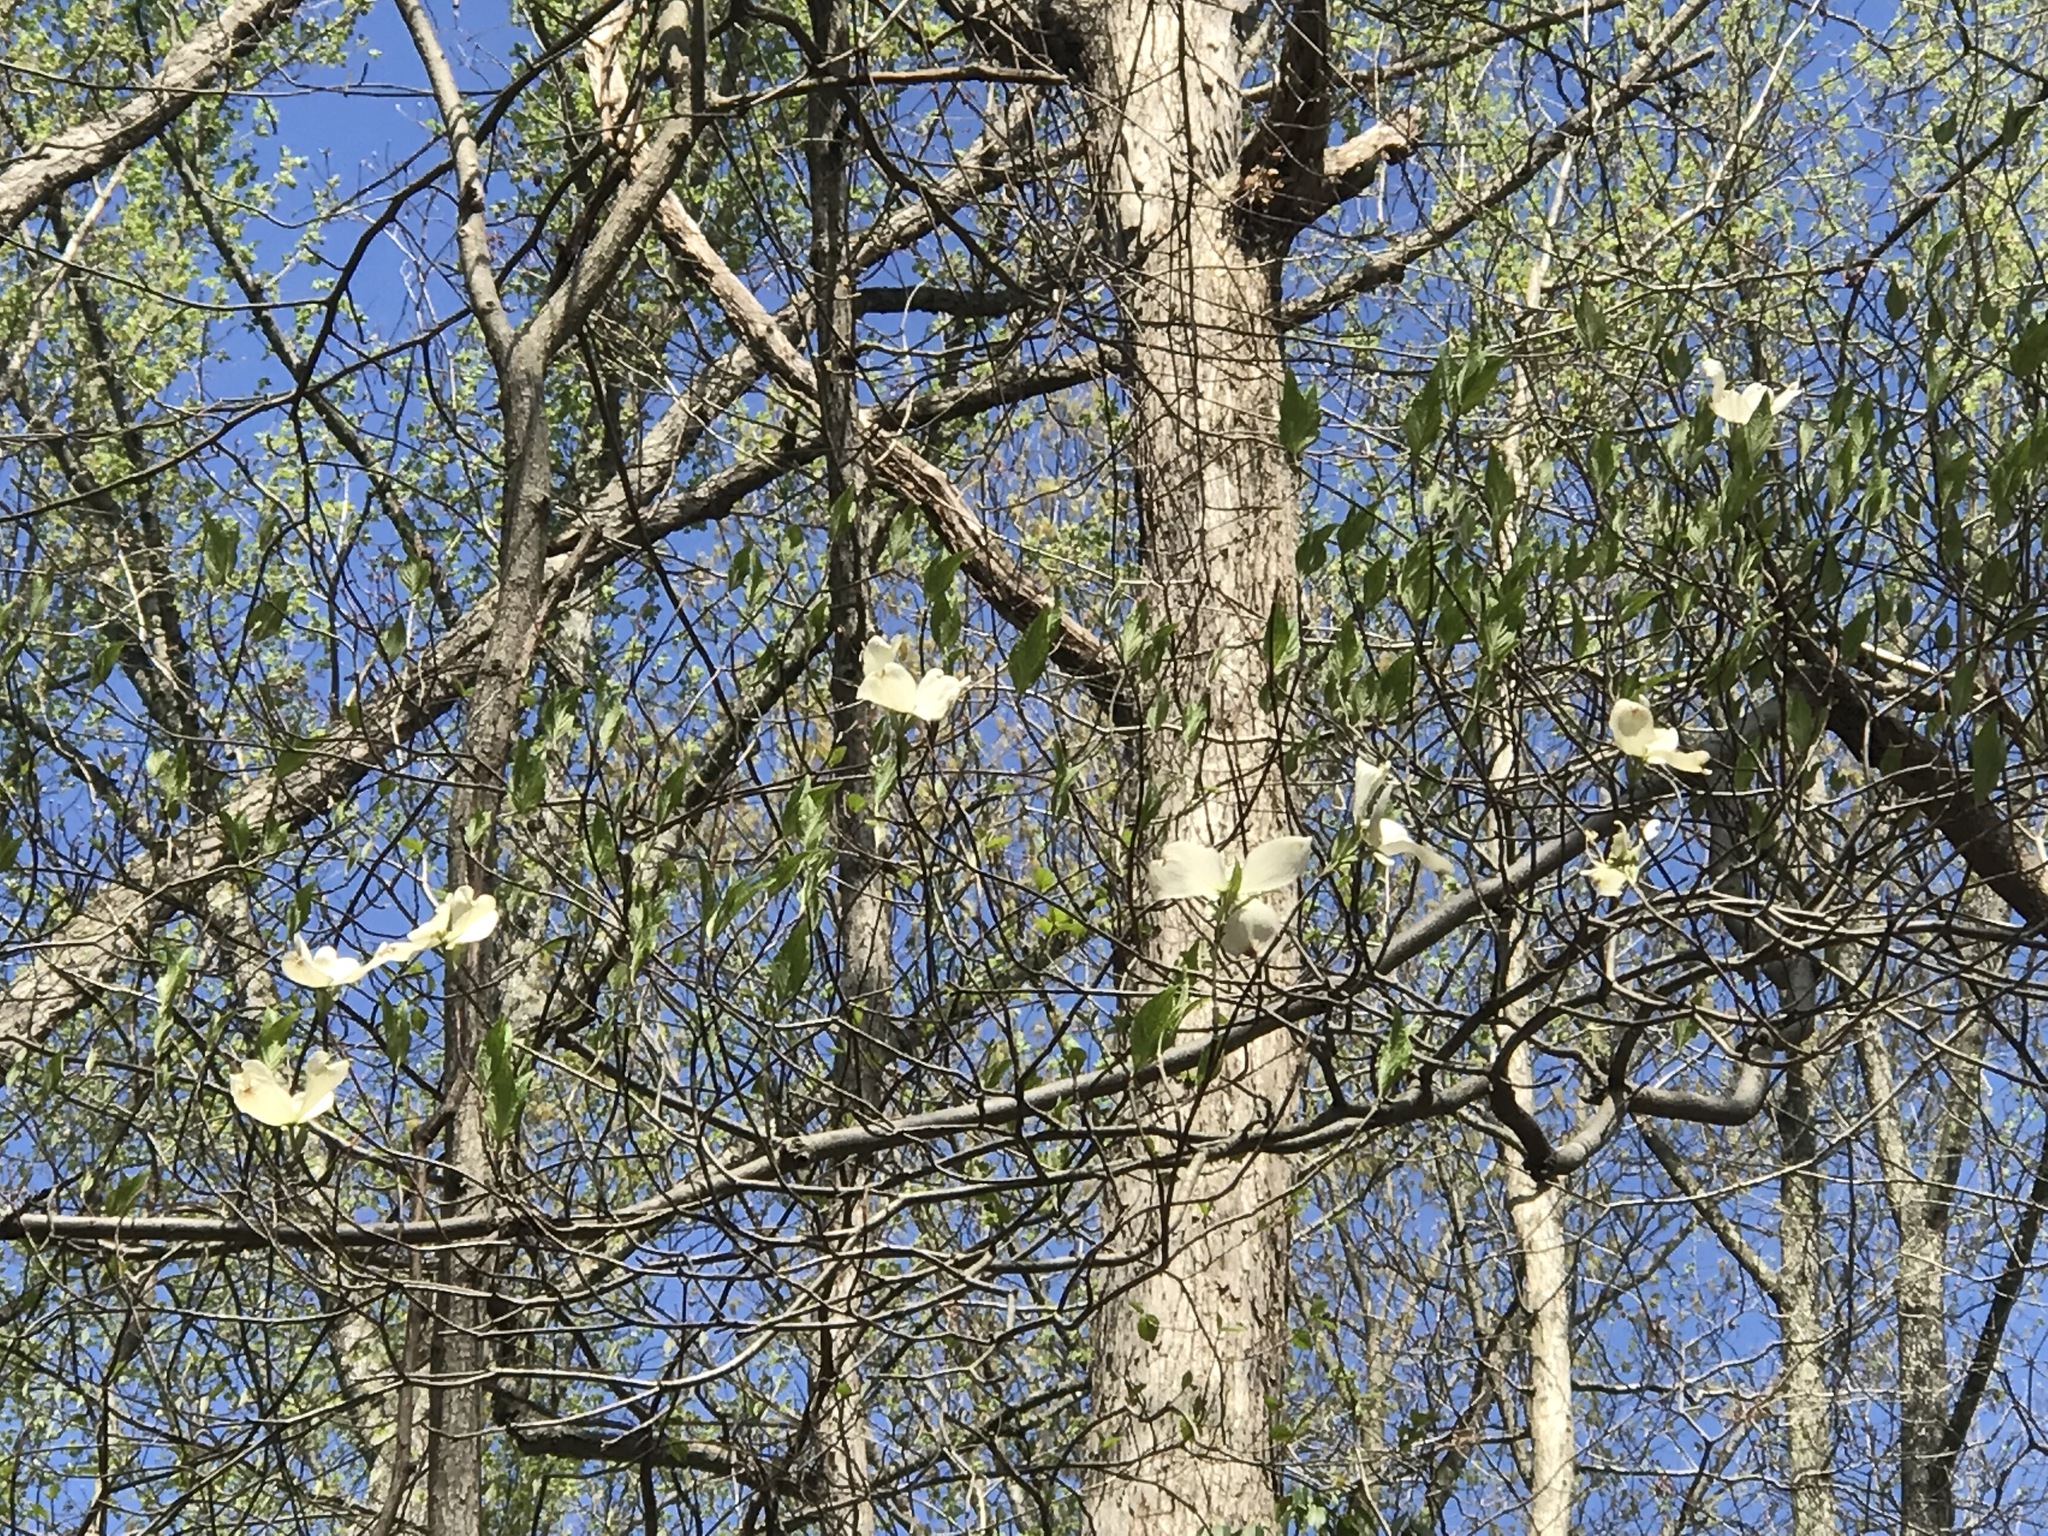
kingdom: Plantae
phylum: Tracheophyta
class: Magnoliopsida
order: Cornales
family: Cornaceae
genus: Cornus
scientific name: Cornus florida
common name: Flowering dogwood
